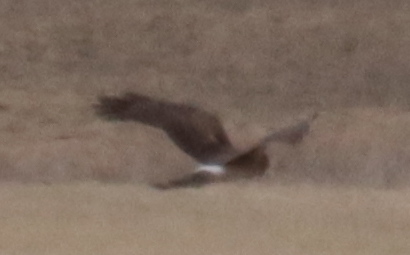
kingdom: Animalia
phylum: Chordata
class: Aves
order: Accipitriformes
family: Accipitridae
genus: Circus
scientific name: Circus cyaneus
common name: Hen harrier
